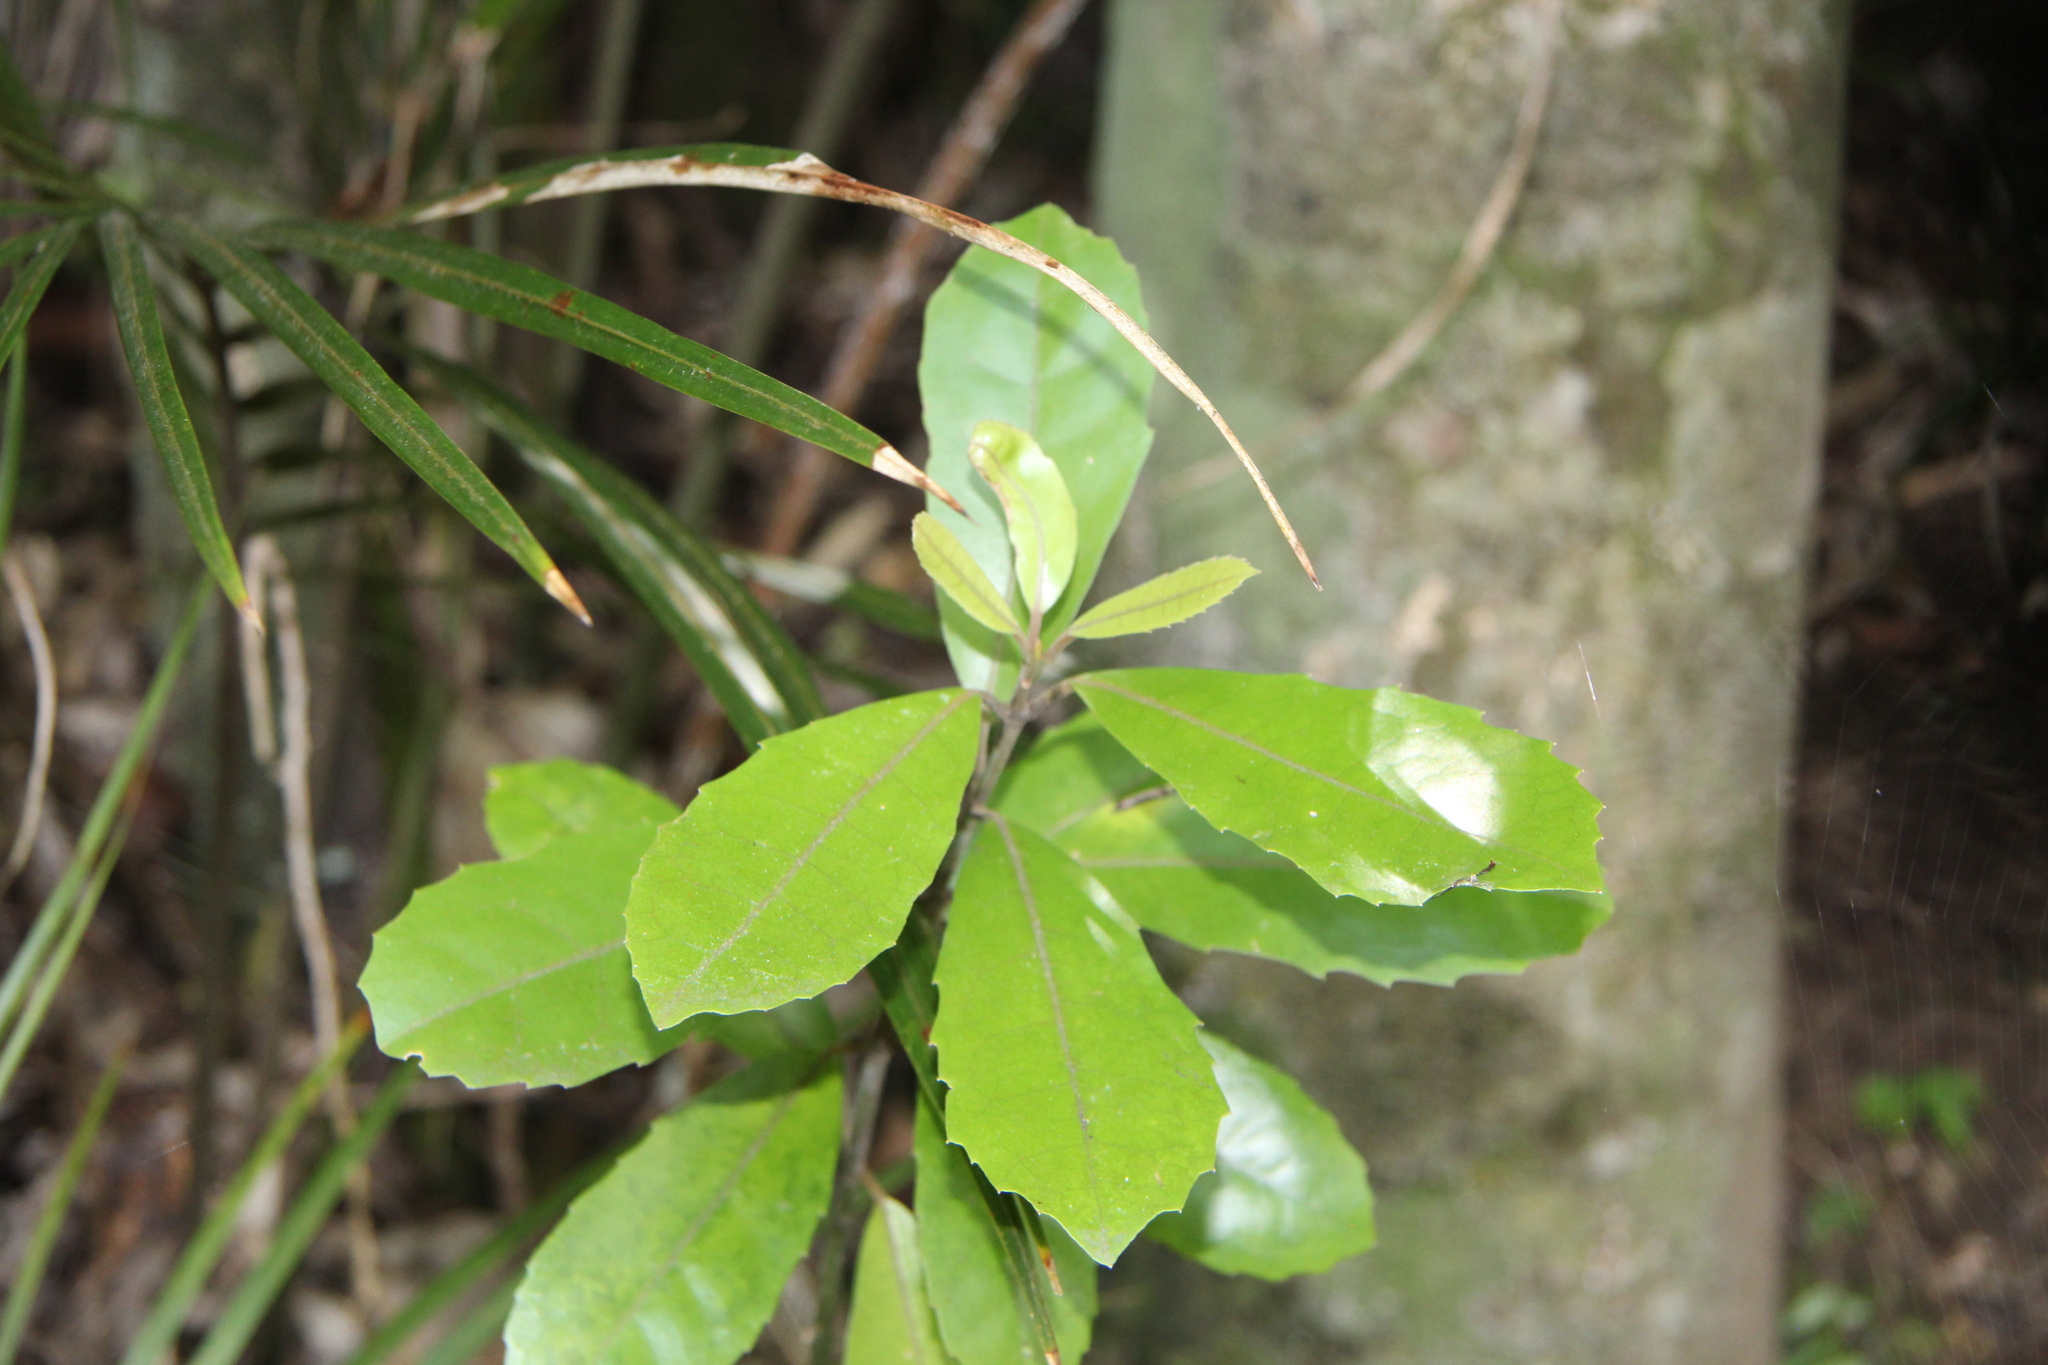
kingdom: Plantae
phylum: Tracheophyta
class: Magnoliopsida
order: Laurales
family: Monimiaceae
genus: Hedycarya
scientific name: Hedycarya arborea
